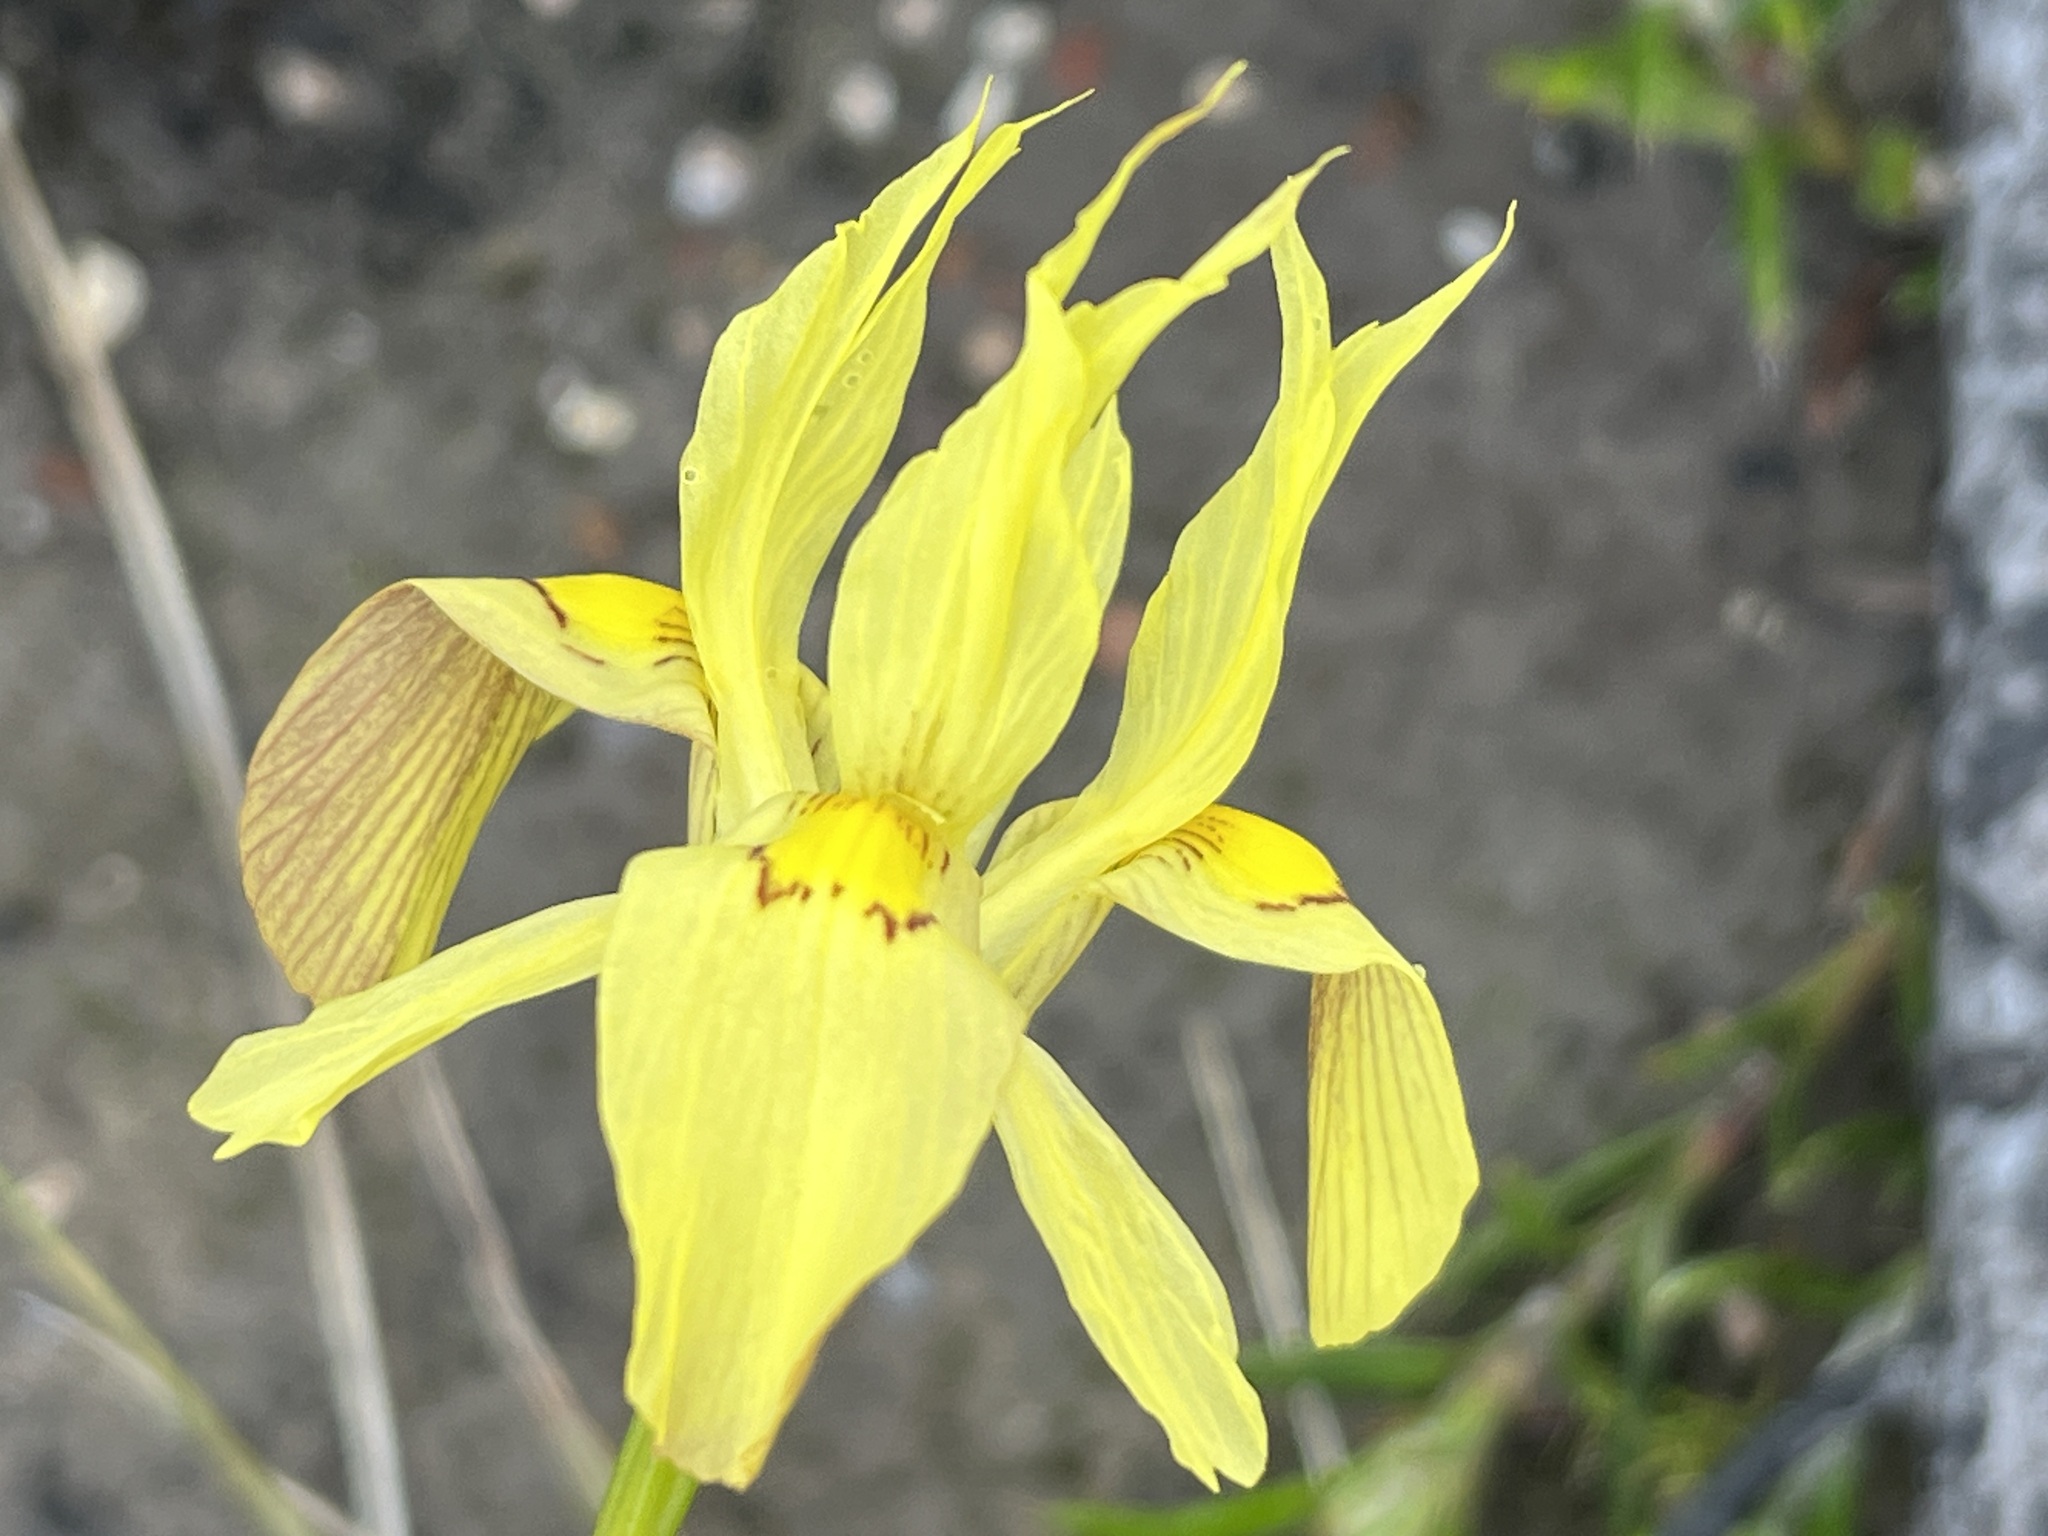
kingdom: Plantae
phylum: Tracheophyta
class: Liliopsida
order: Asparagales
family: Iridaceae
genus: Moraea
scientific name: Moraea anomala
